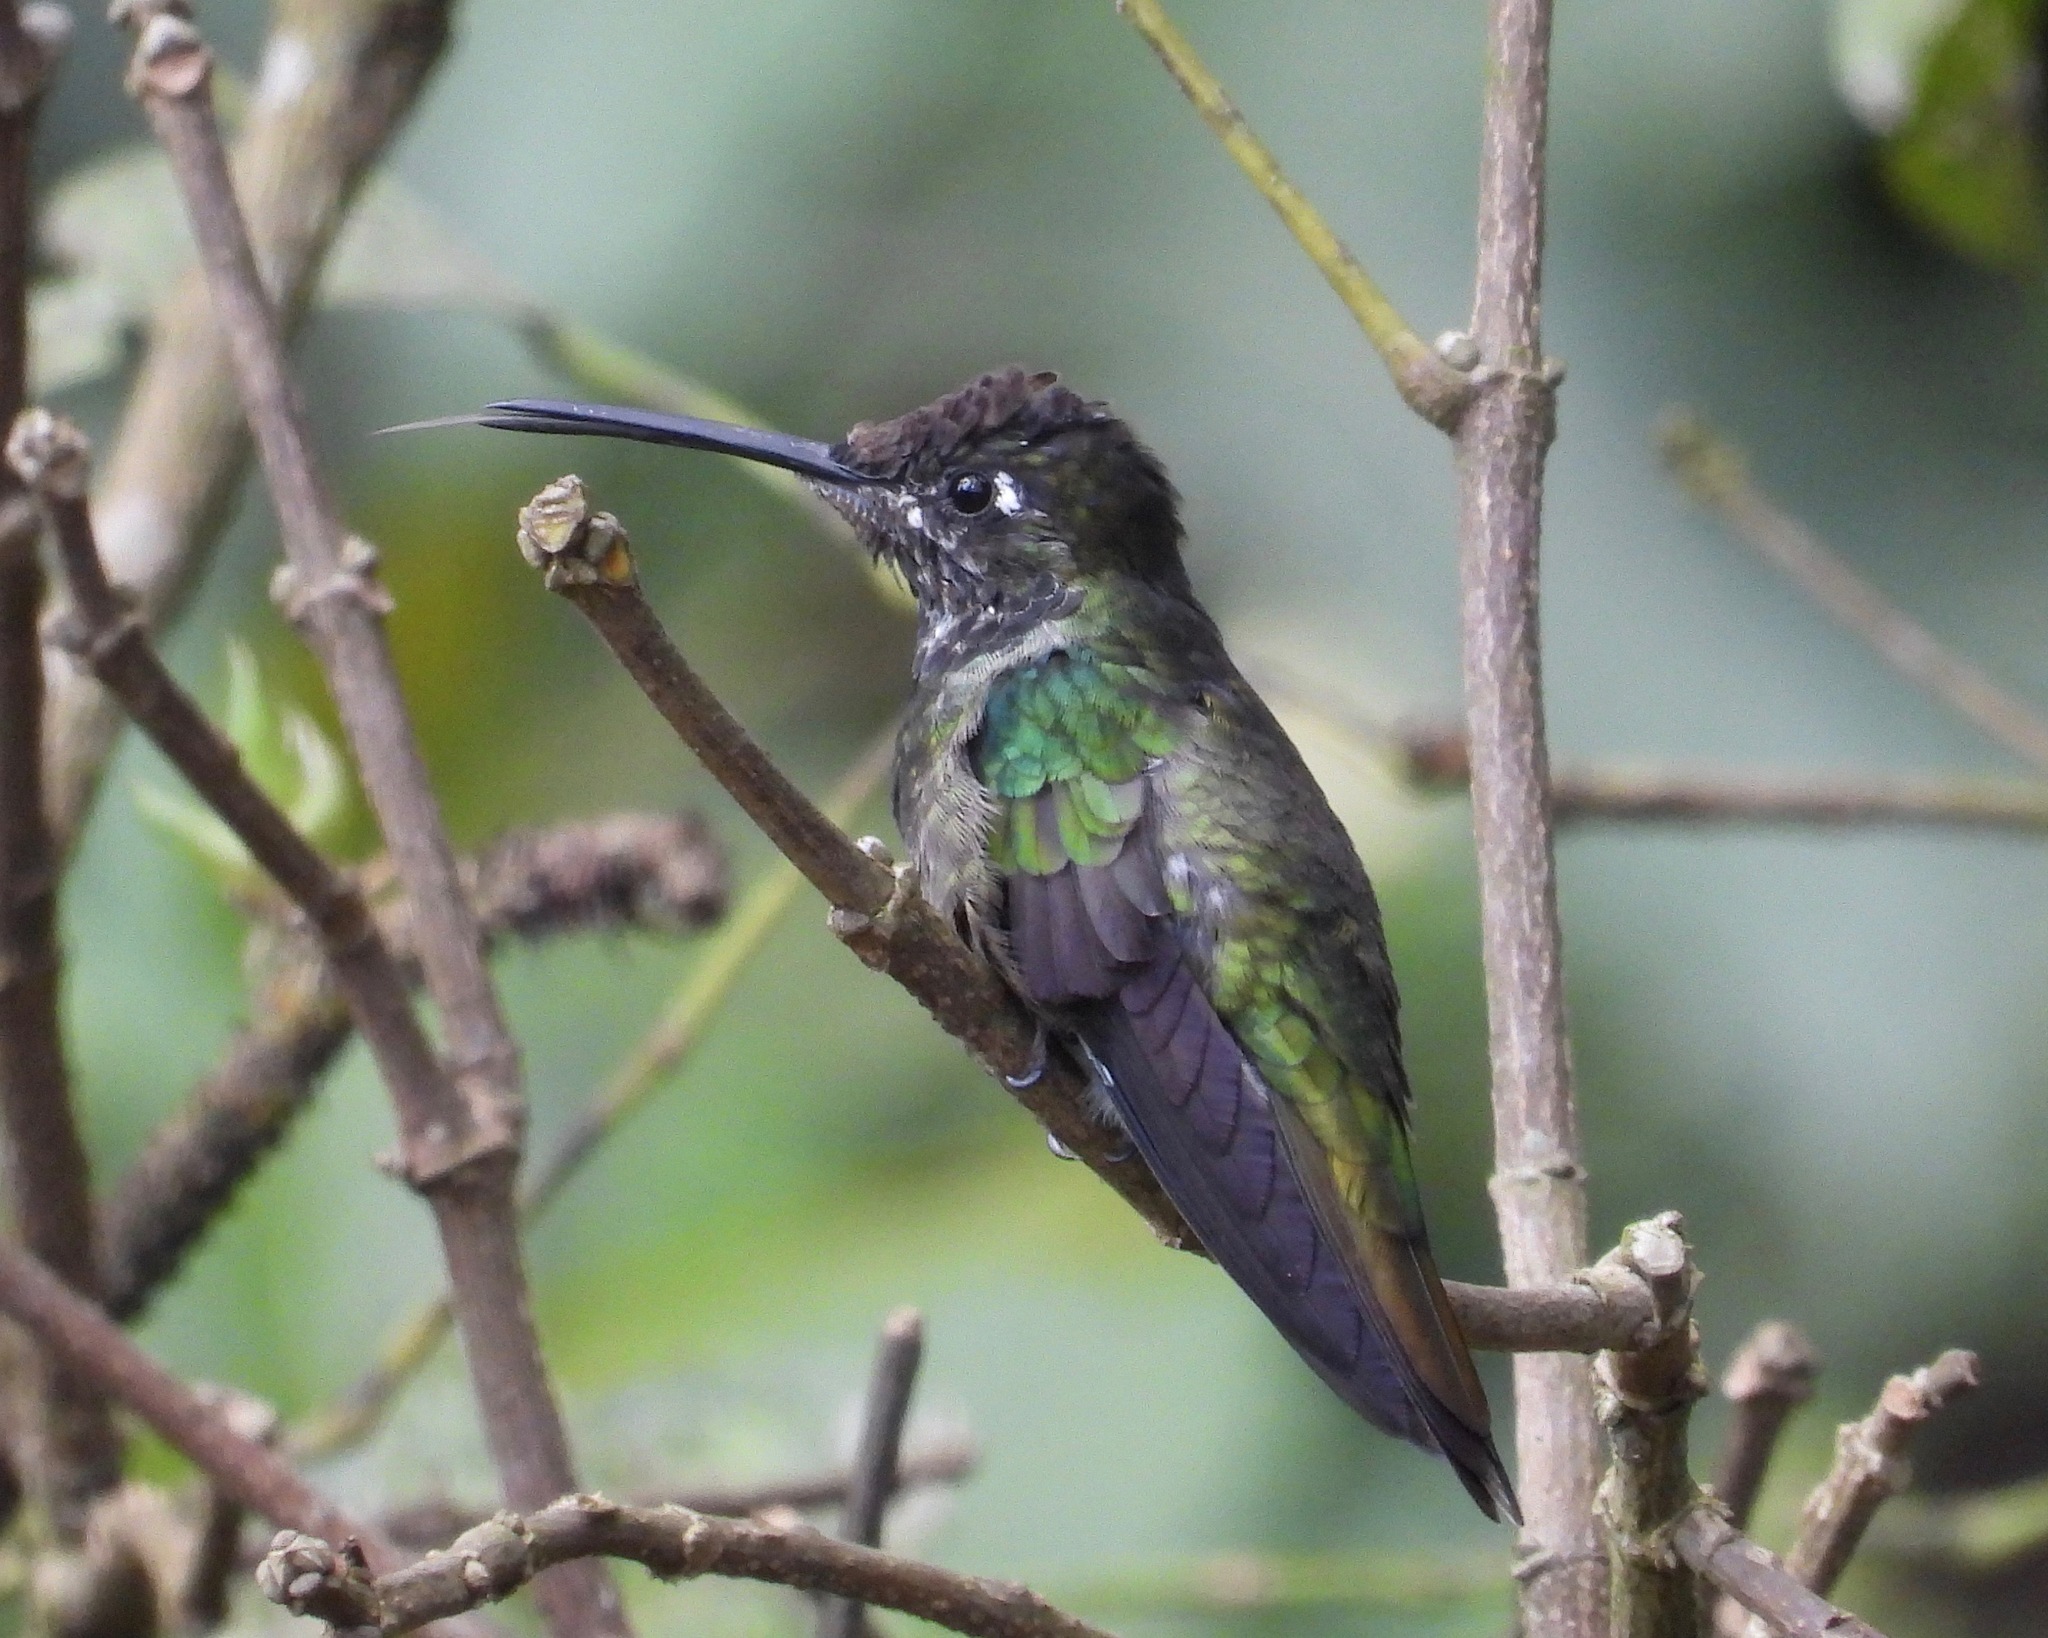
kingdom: Animalia
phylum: Chordata
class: Aves
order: Apodiformes
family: Trochilidae
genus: Eugenes
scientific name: Eugenes fulgens
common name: Magnificent hummingbird
